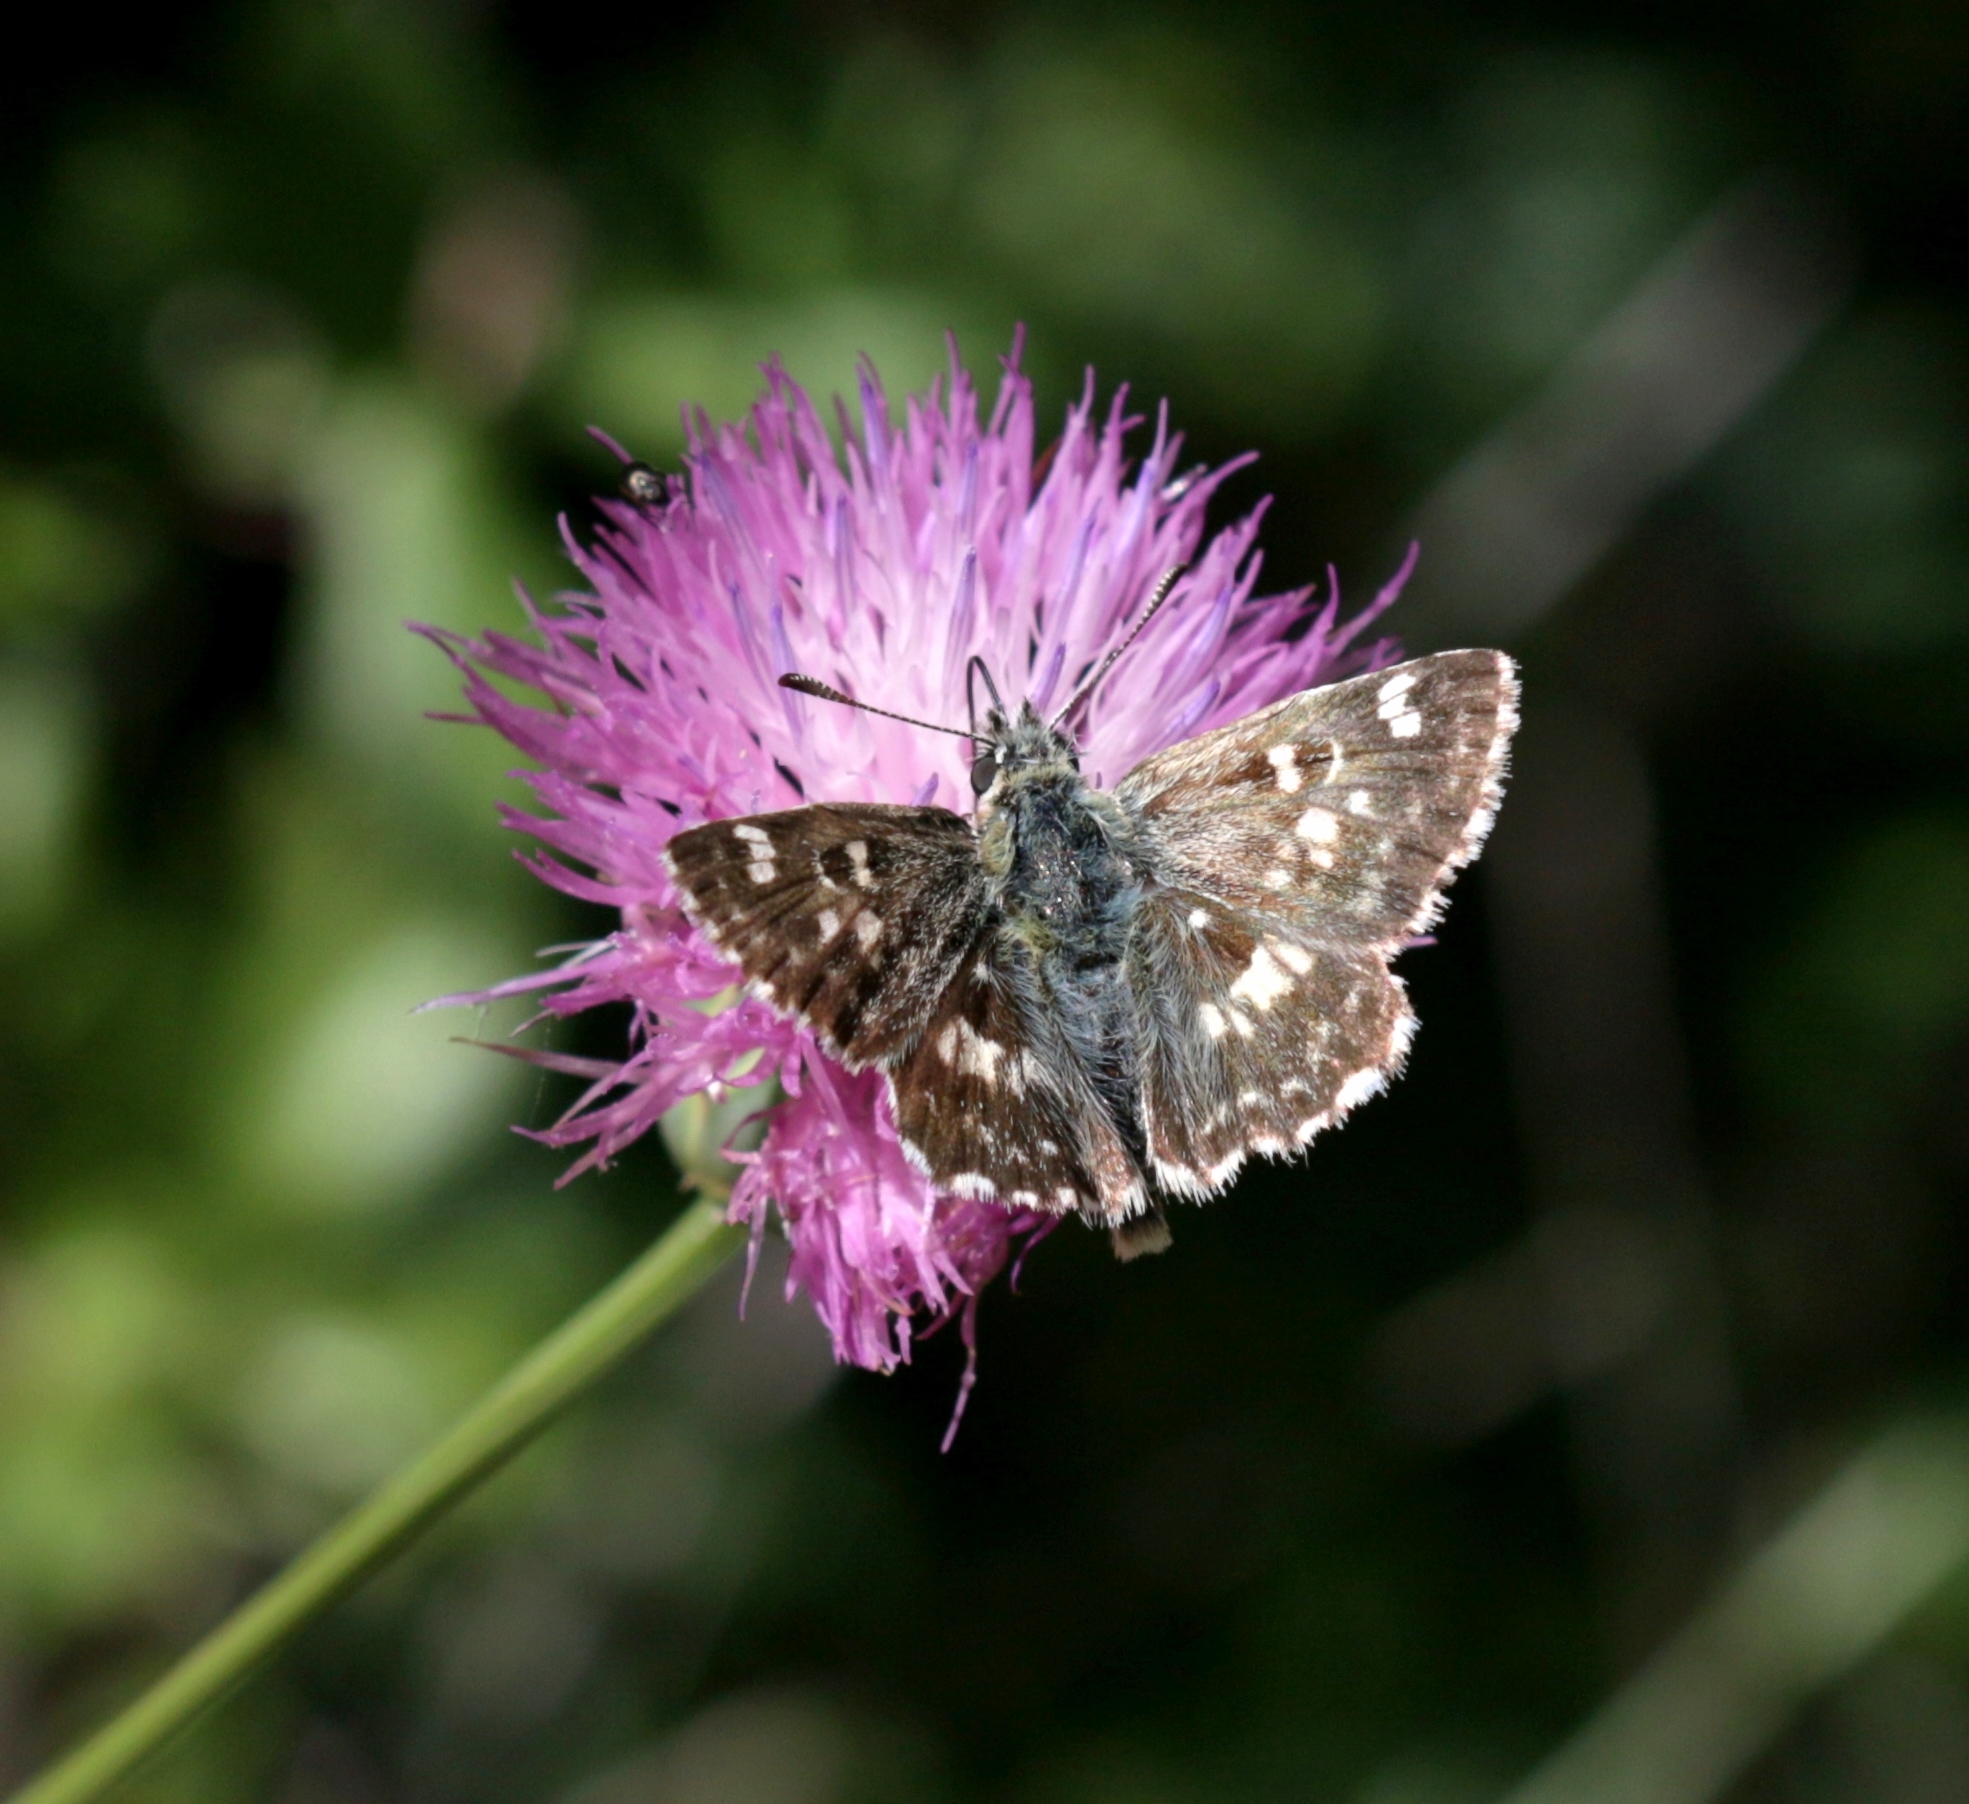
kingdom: Animalia
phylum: Arthropoda
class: Insecta
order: Lepidoptera
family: Hesperiidae
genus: Syrichtus
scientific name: Syrichtus Muschampia proto
